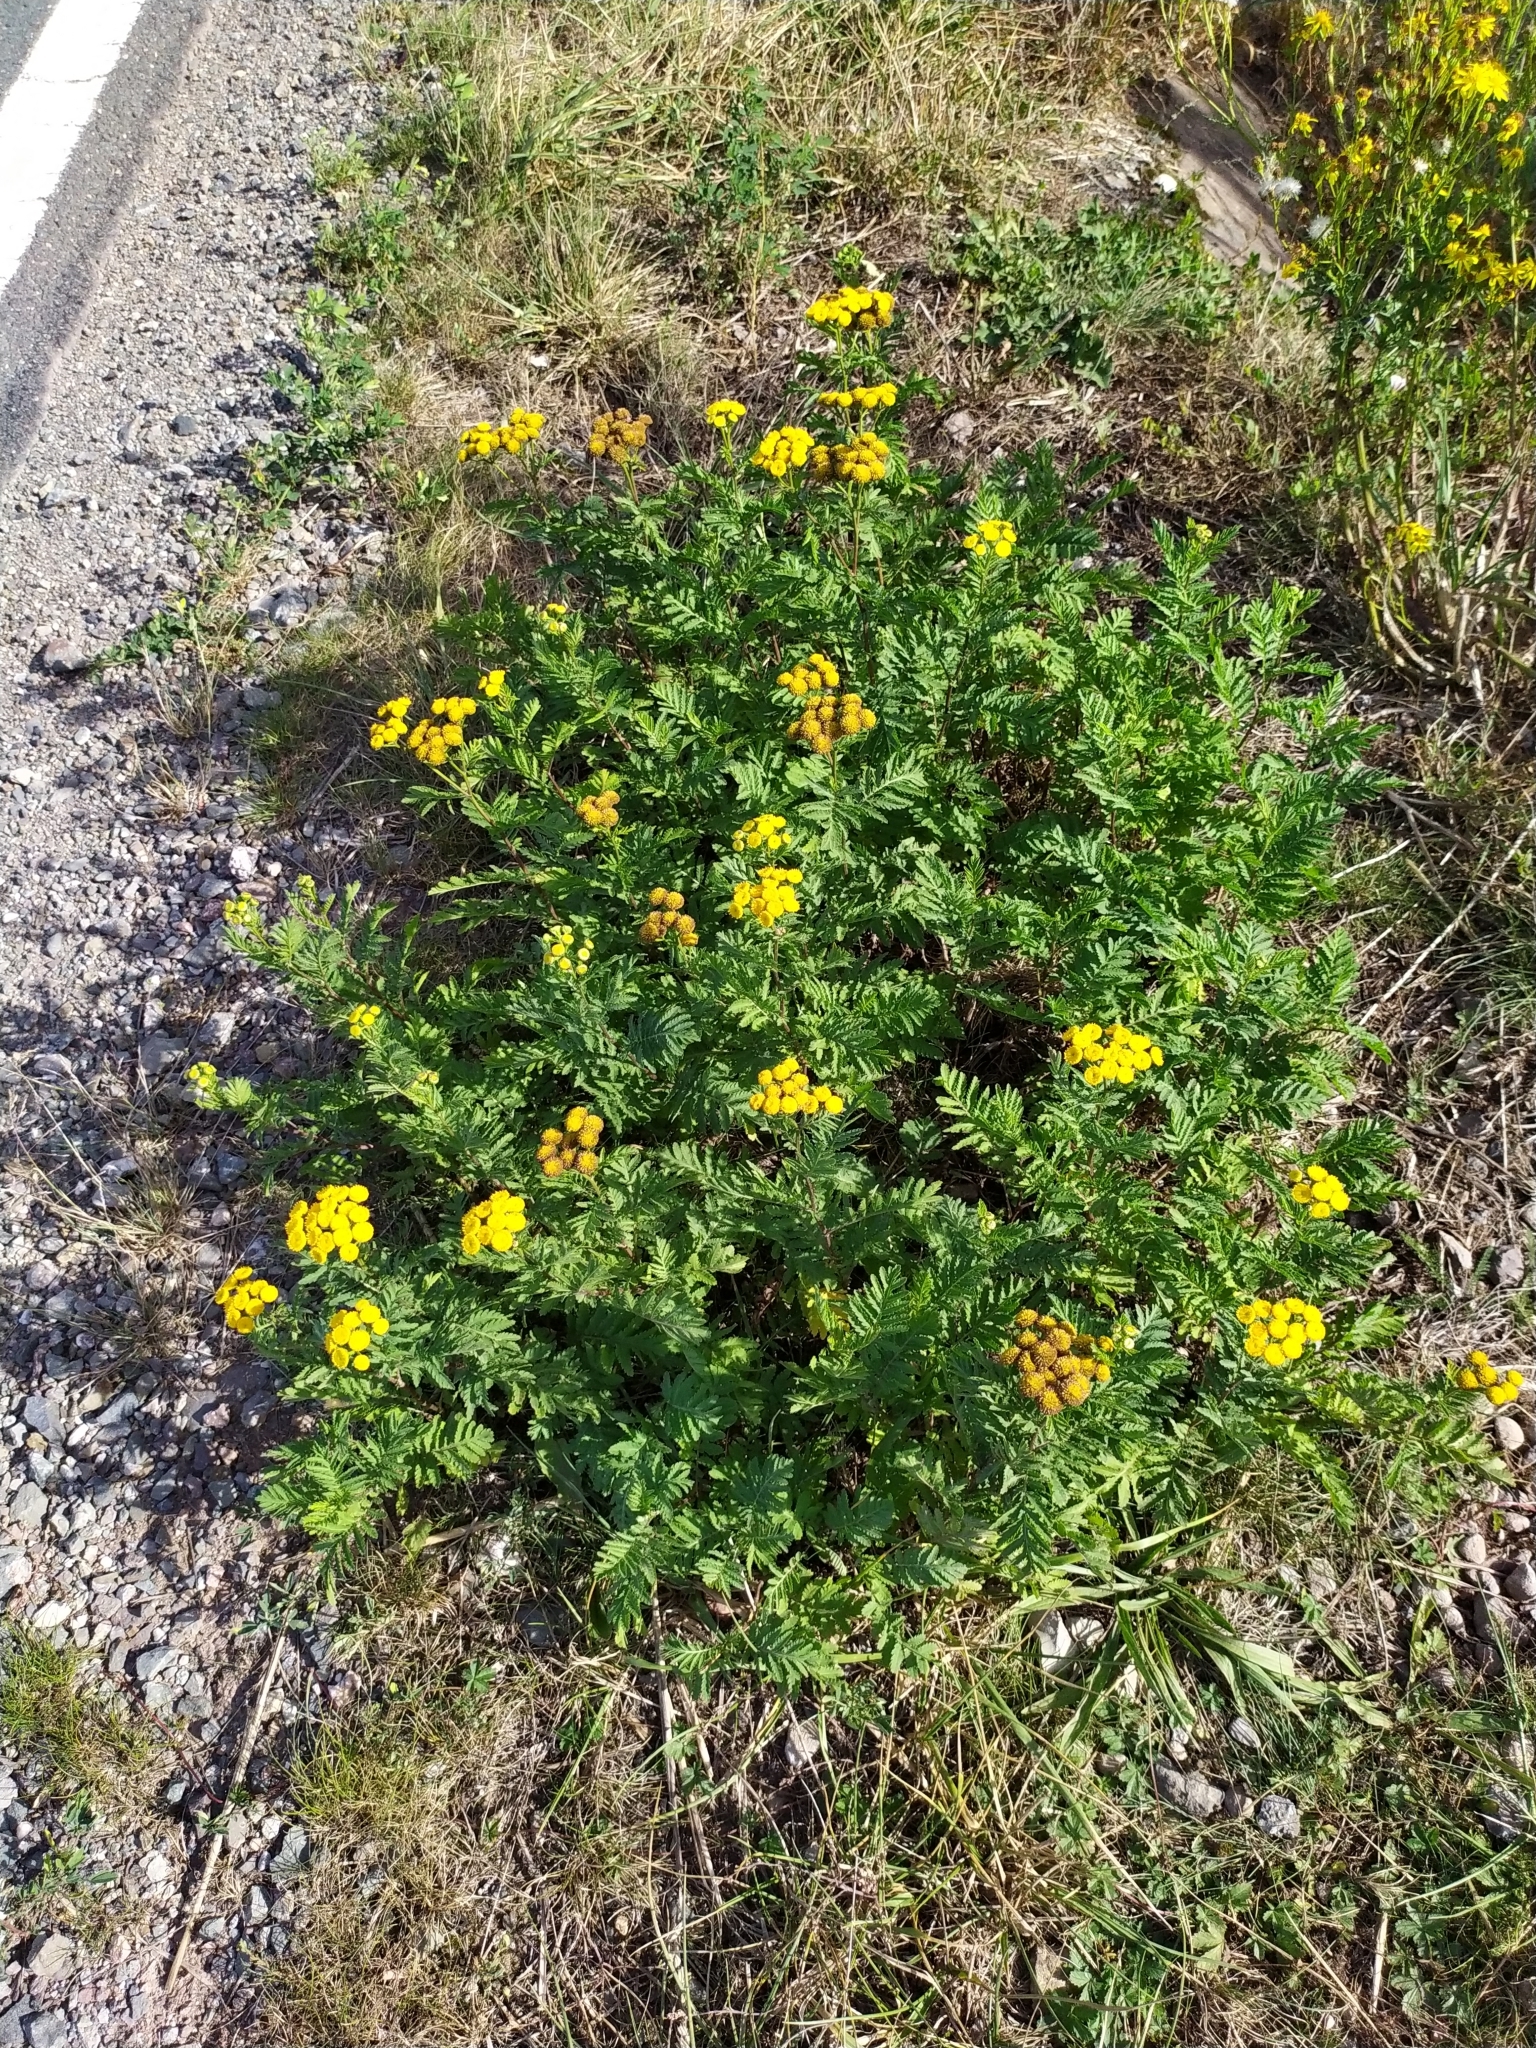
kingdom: Plantae
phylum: Tracheophyta
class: Magnoliopsida
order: Asterales
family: Asteraceae
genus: Tanacetum
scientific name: Tanacetum vulgare
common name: Common tansy
